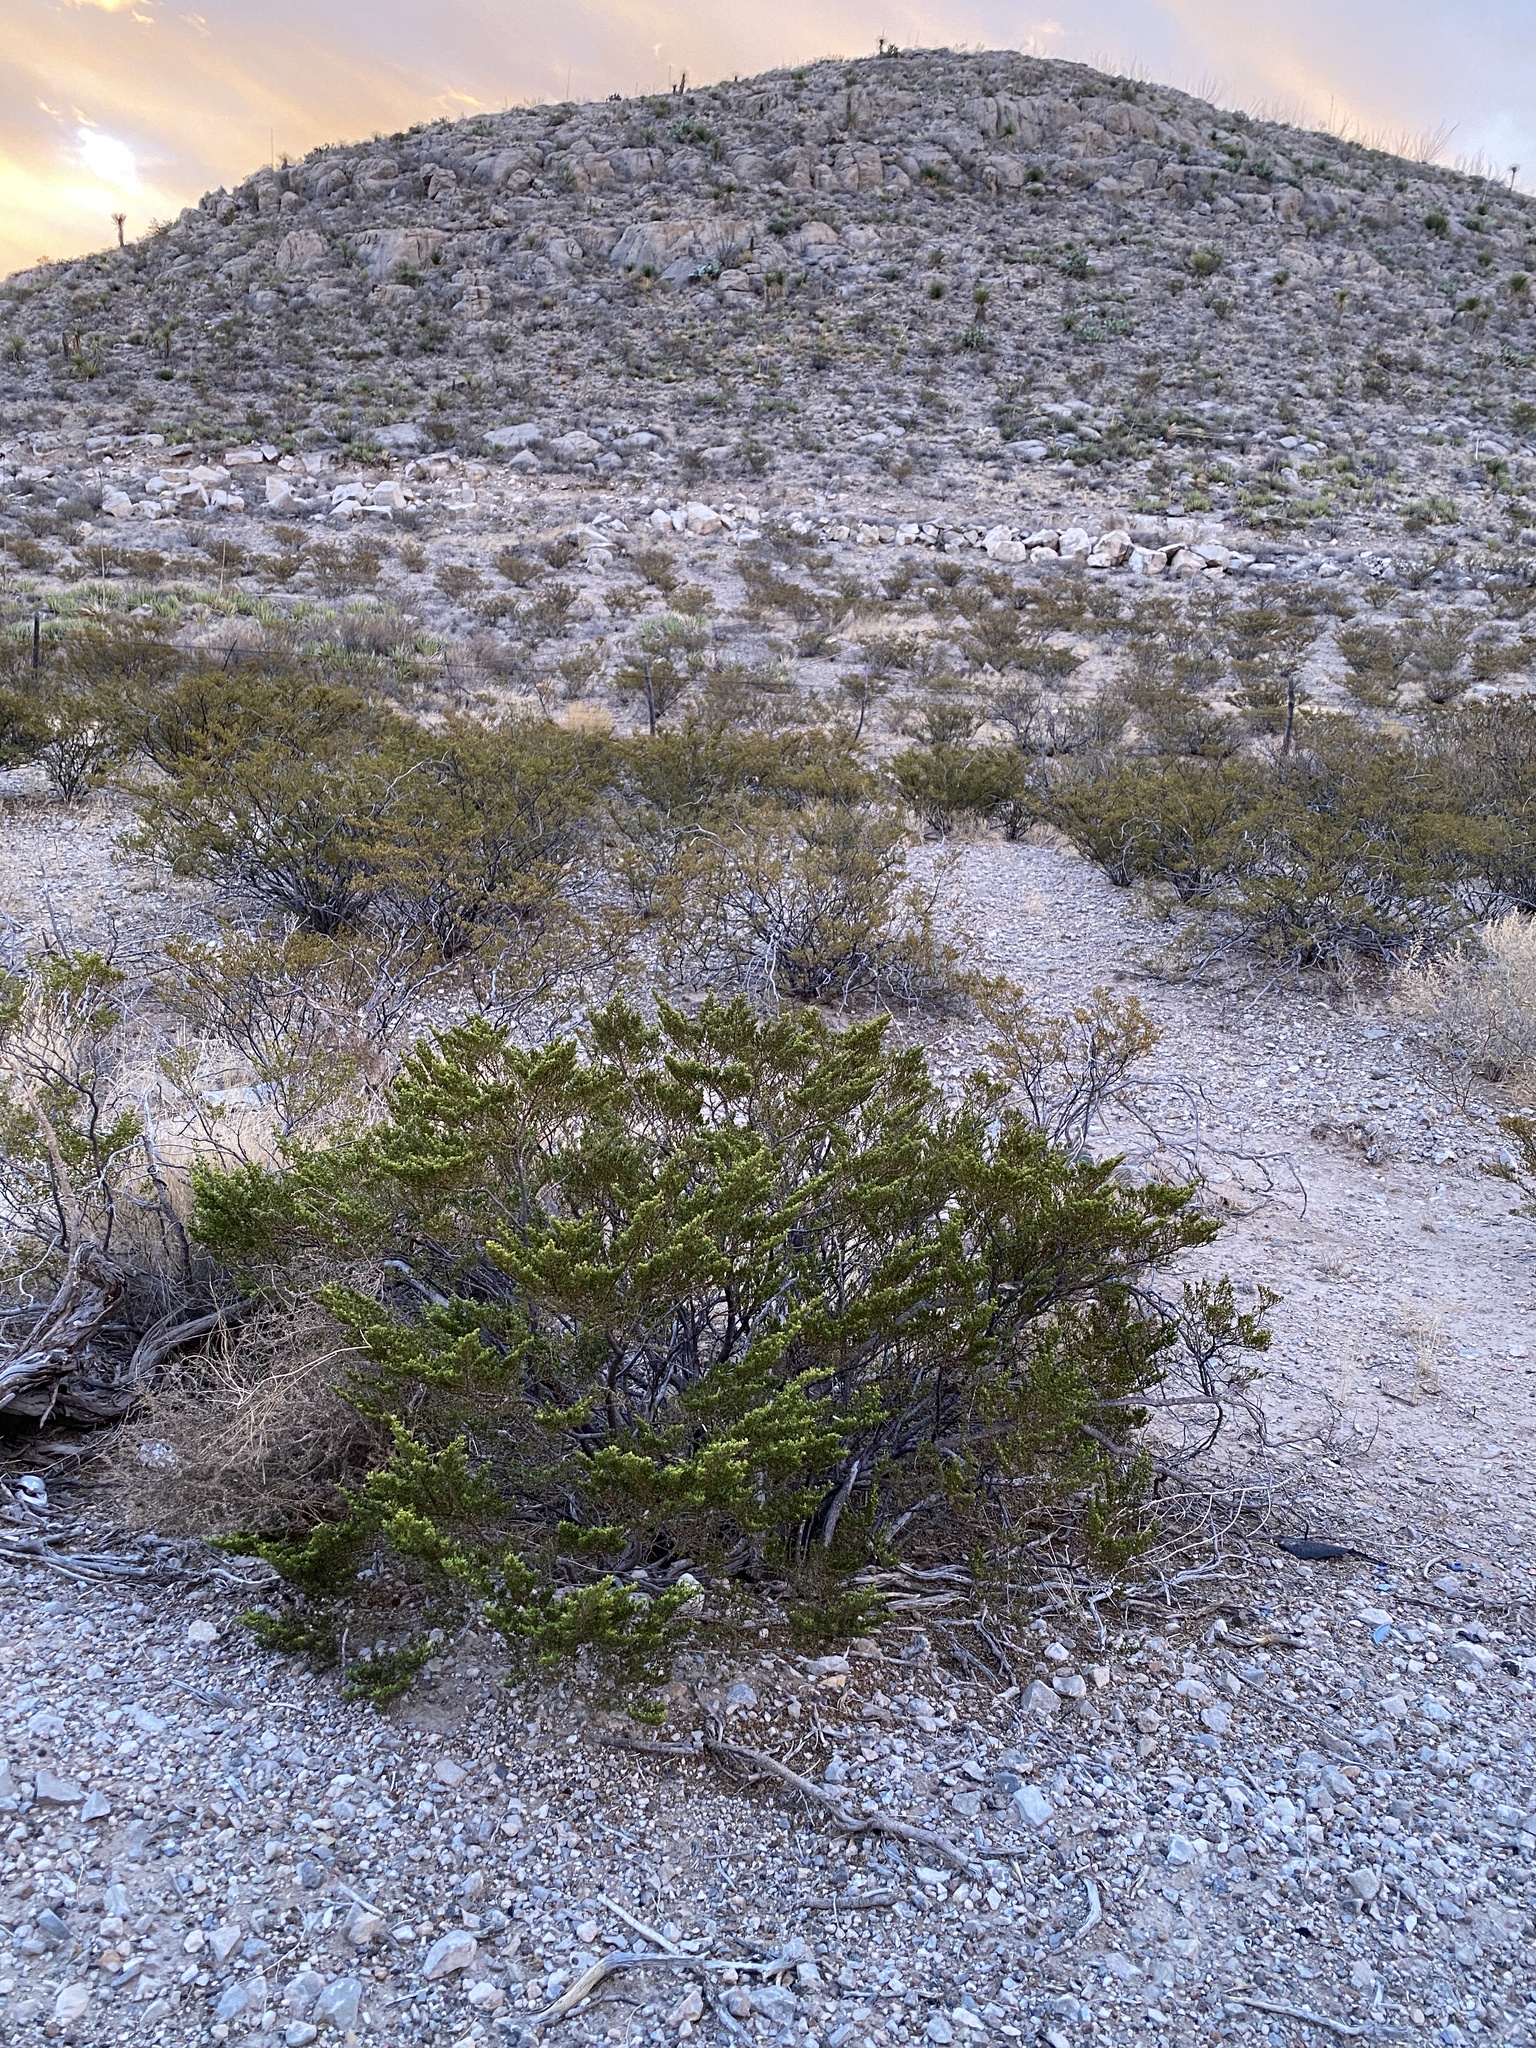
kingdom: Plantae
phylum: Tracheophyta
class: Magnoliopsida
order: Zygophyllales
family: Zygophyllaceae
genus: Larrea
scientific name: Larrea tridentata
